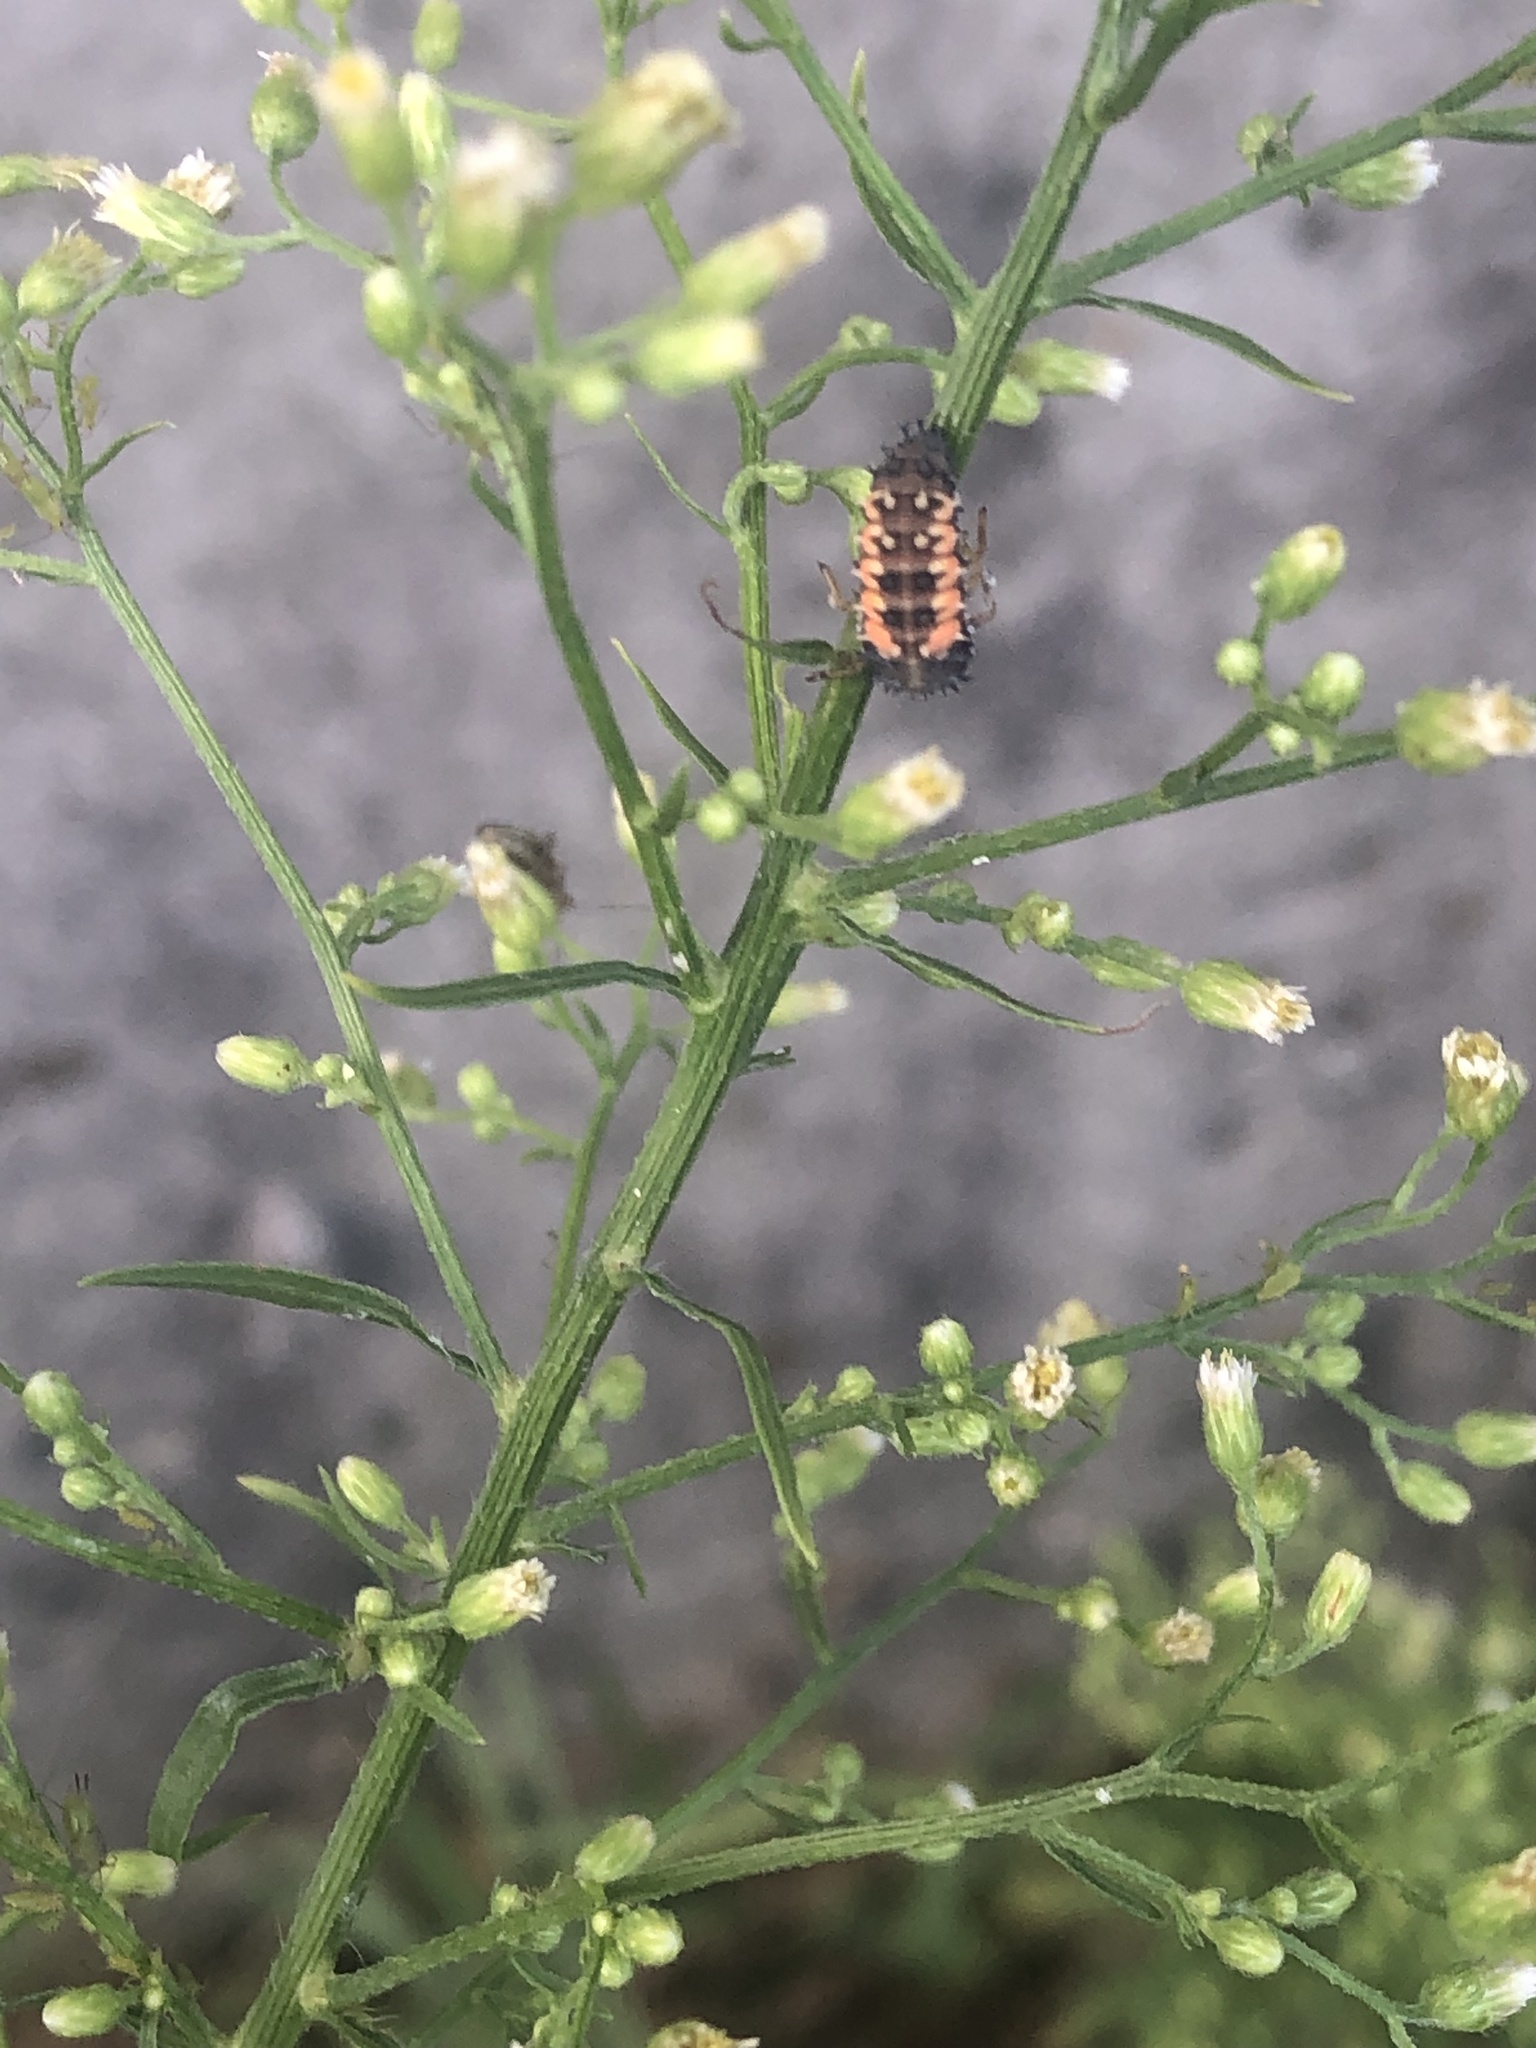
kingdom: Animalia
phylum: Arthropoda
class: Insecta
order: Coleoptera
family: Coccinellidae
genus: Harmonia
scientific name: Harmonia axyridis
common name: Harlequin ladybird
